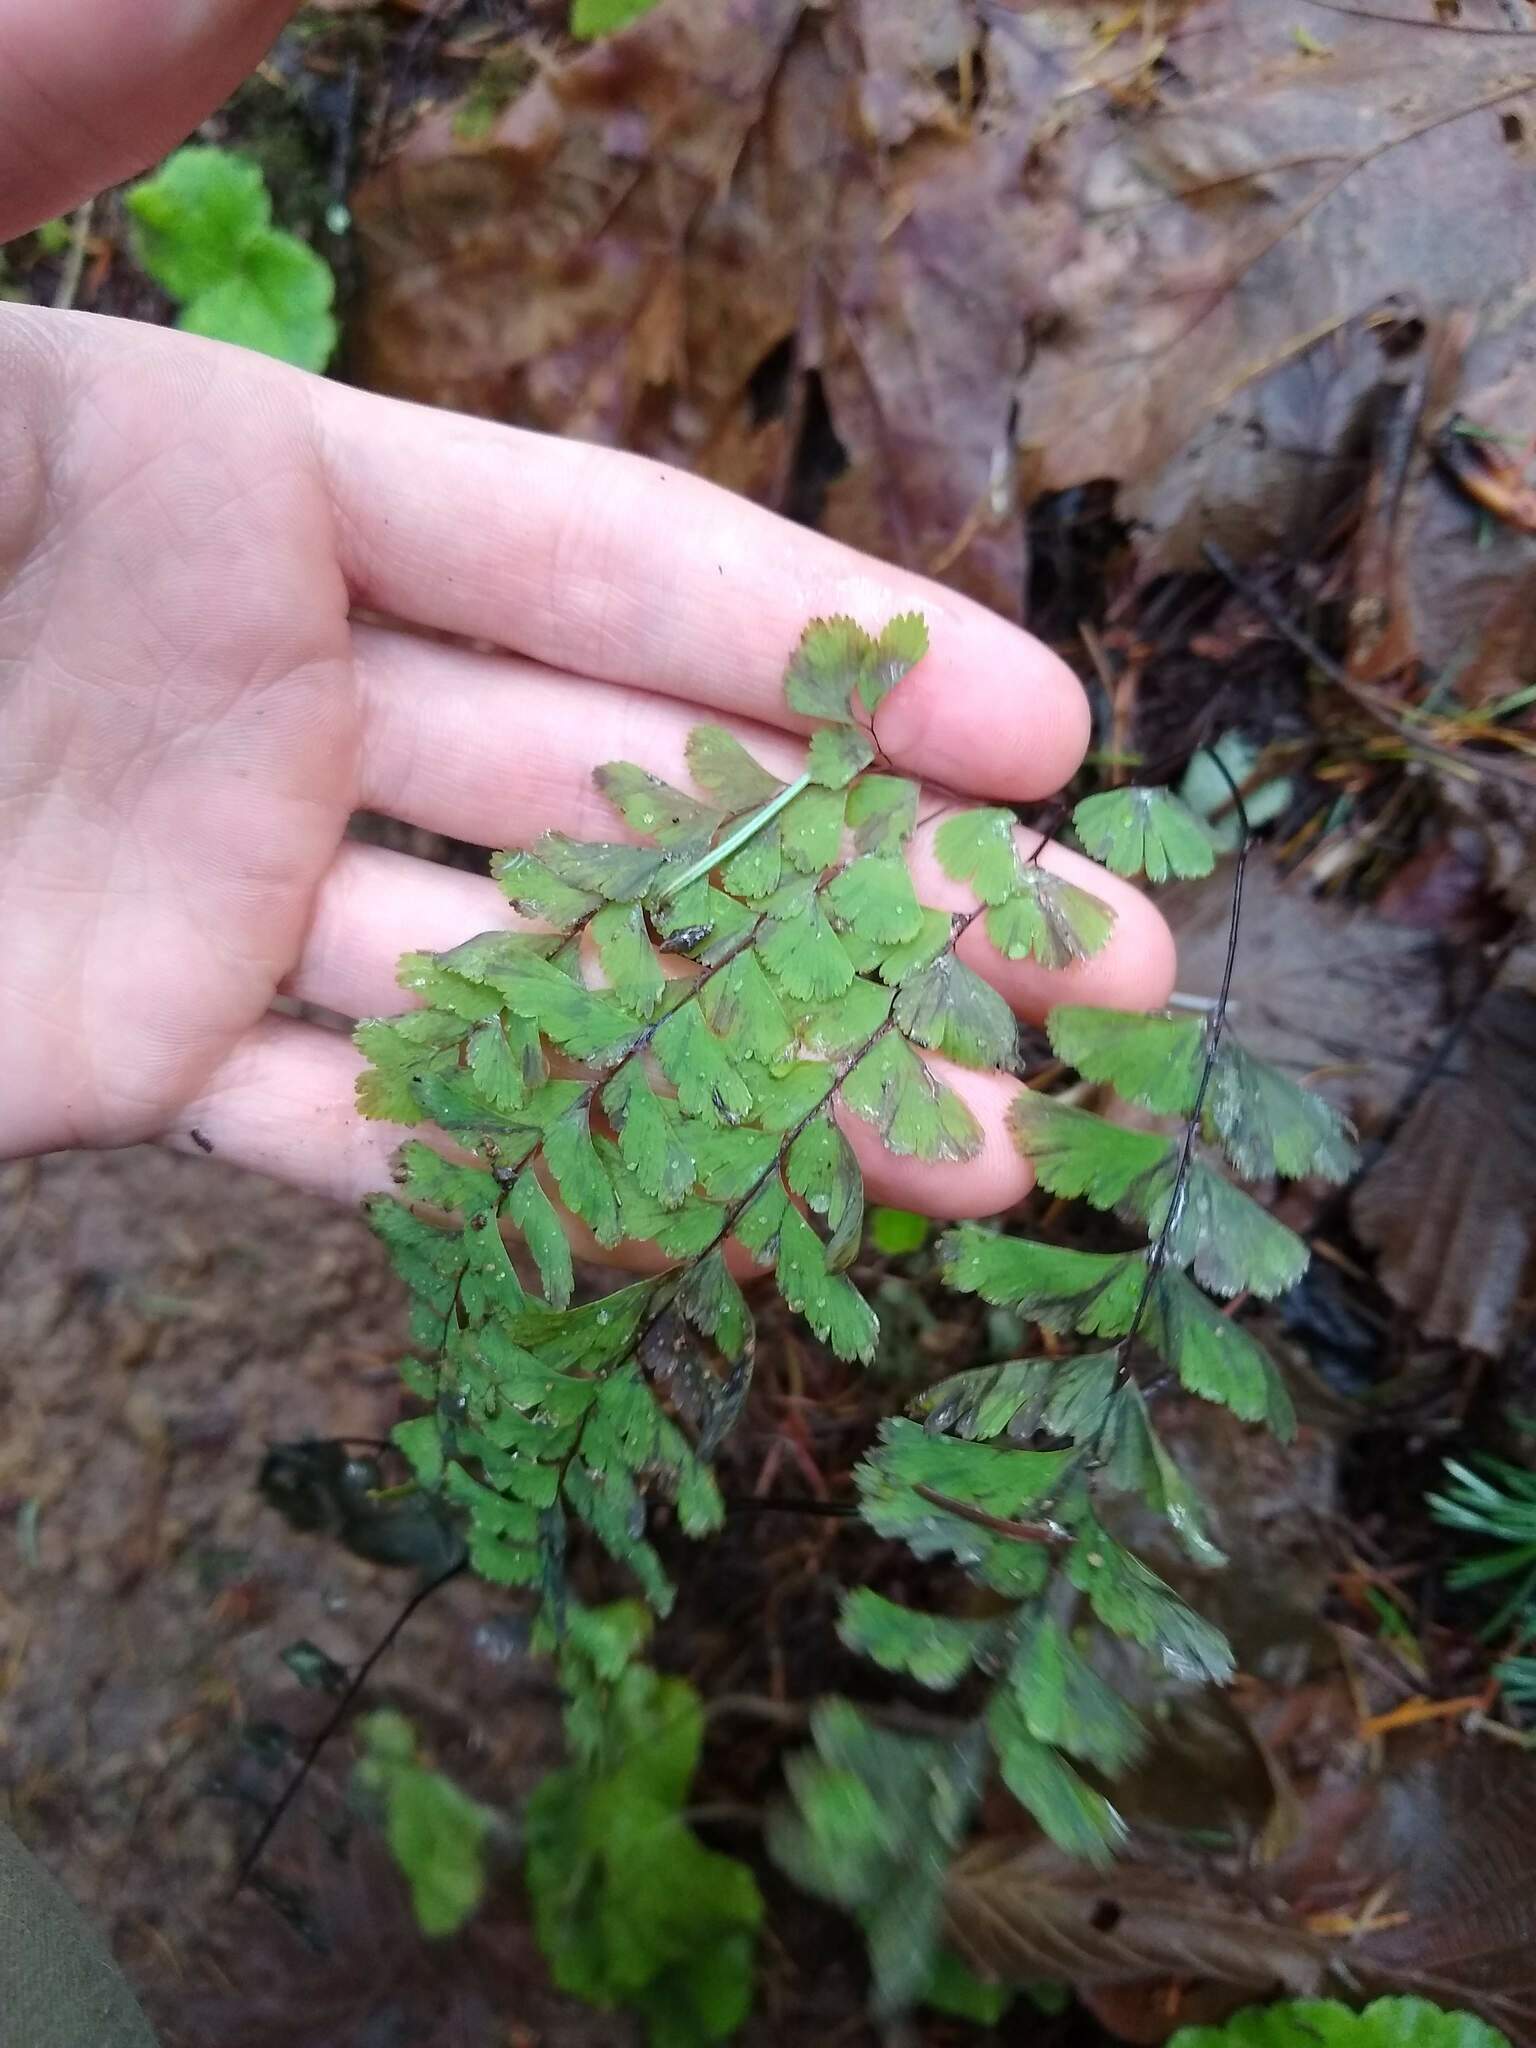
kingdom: Plantae
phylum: Tracheophyta
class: Polypodiopsida
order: Polypodiales
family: Pteridaceae
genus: Adiantum
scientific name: Adiantum aleuticum
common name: Aleutian maidenhair fern
